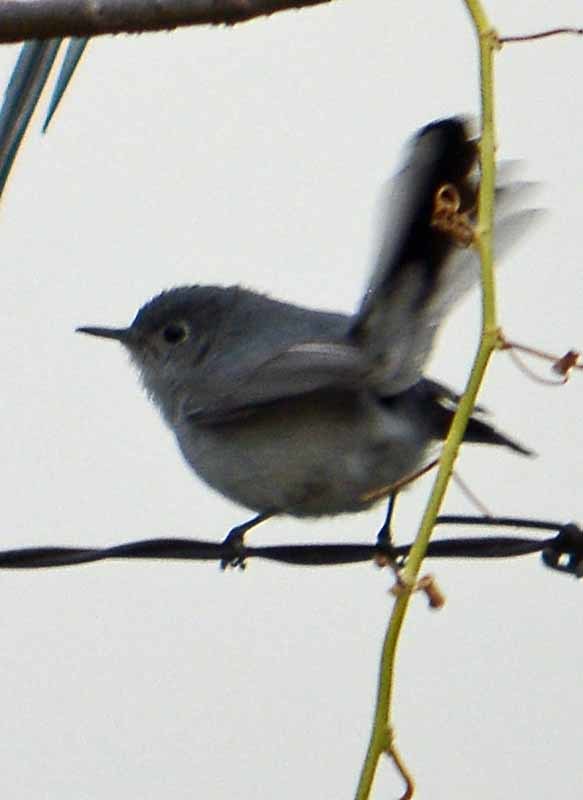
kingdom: Animalia
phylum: Chordata
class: Aves
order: Passeriformes
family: Polioptilidae
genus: Polioptila
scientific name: Polioptila caerulea
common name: Blue-gray gnatcatcher
